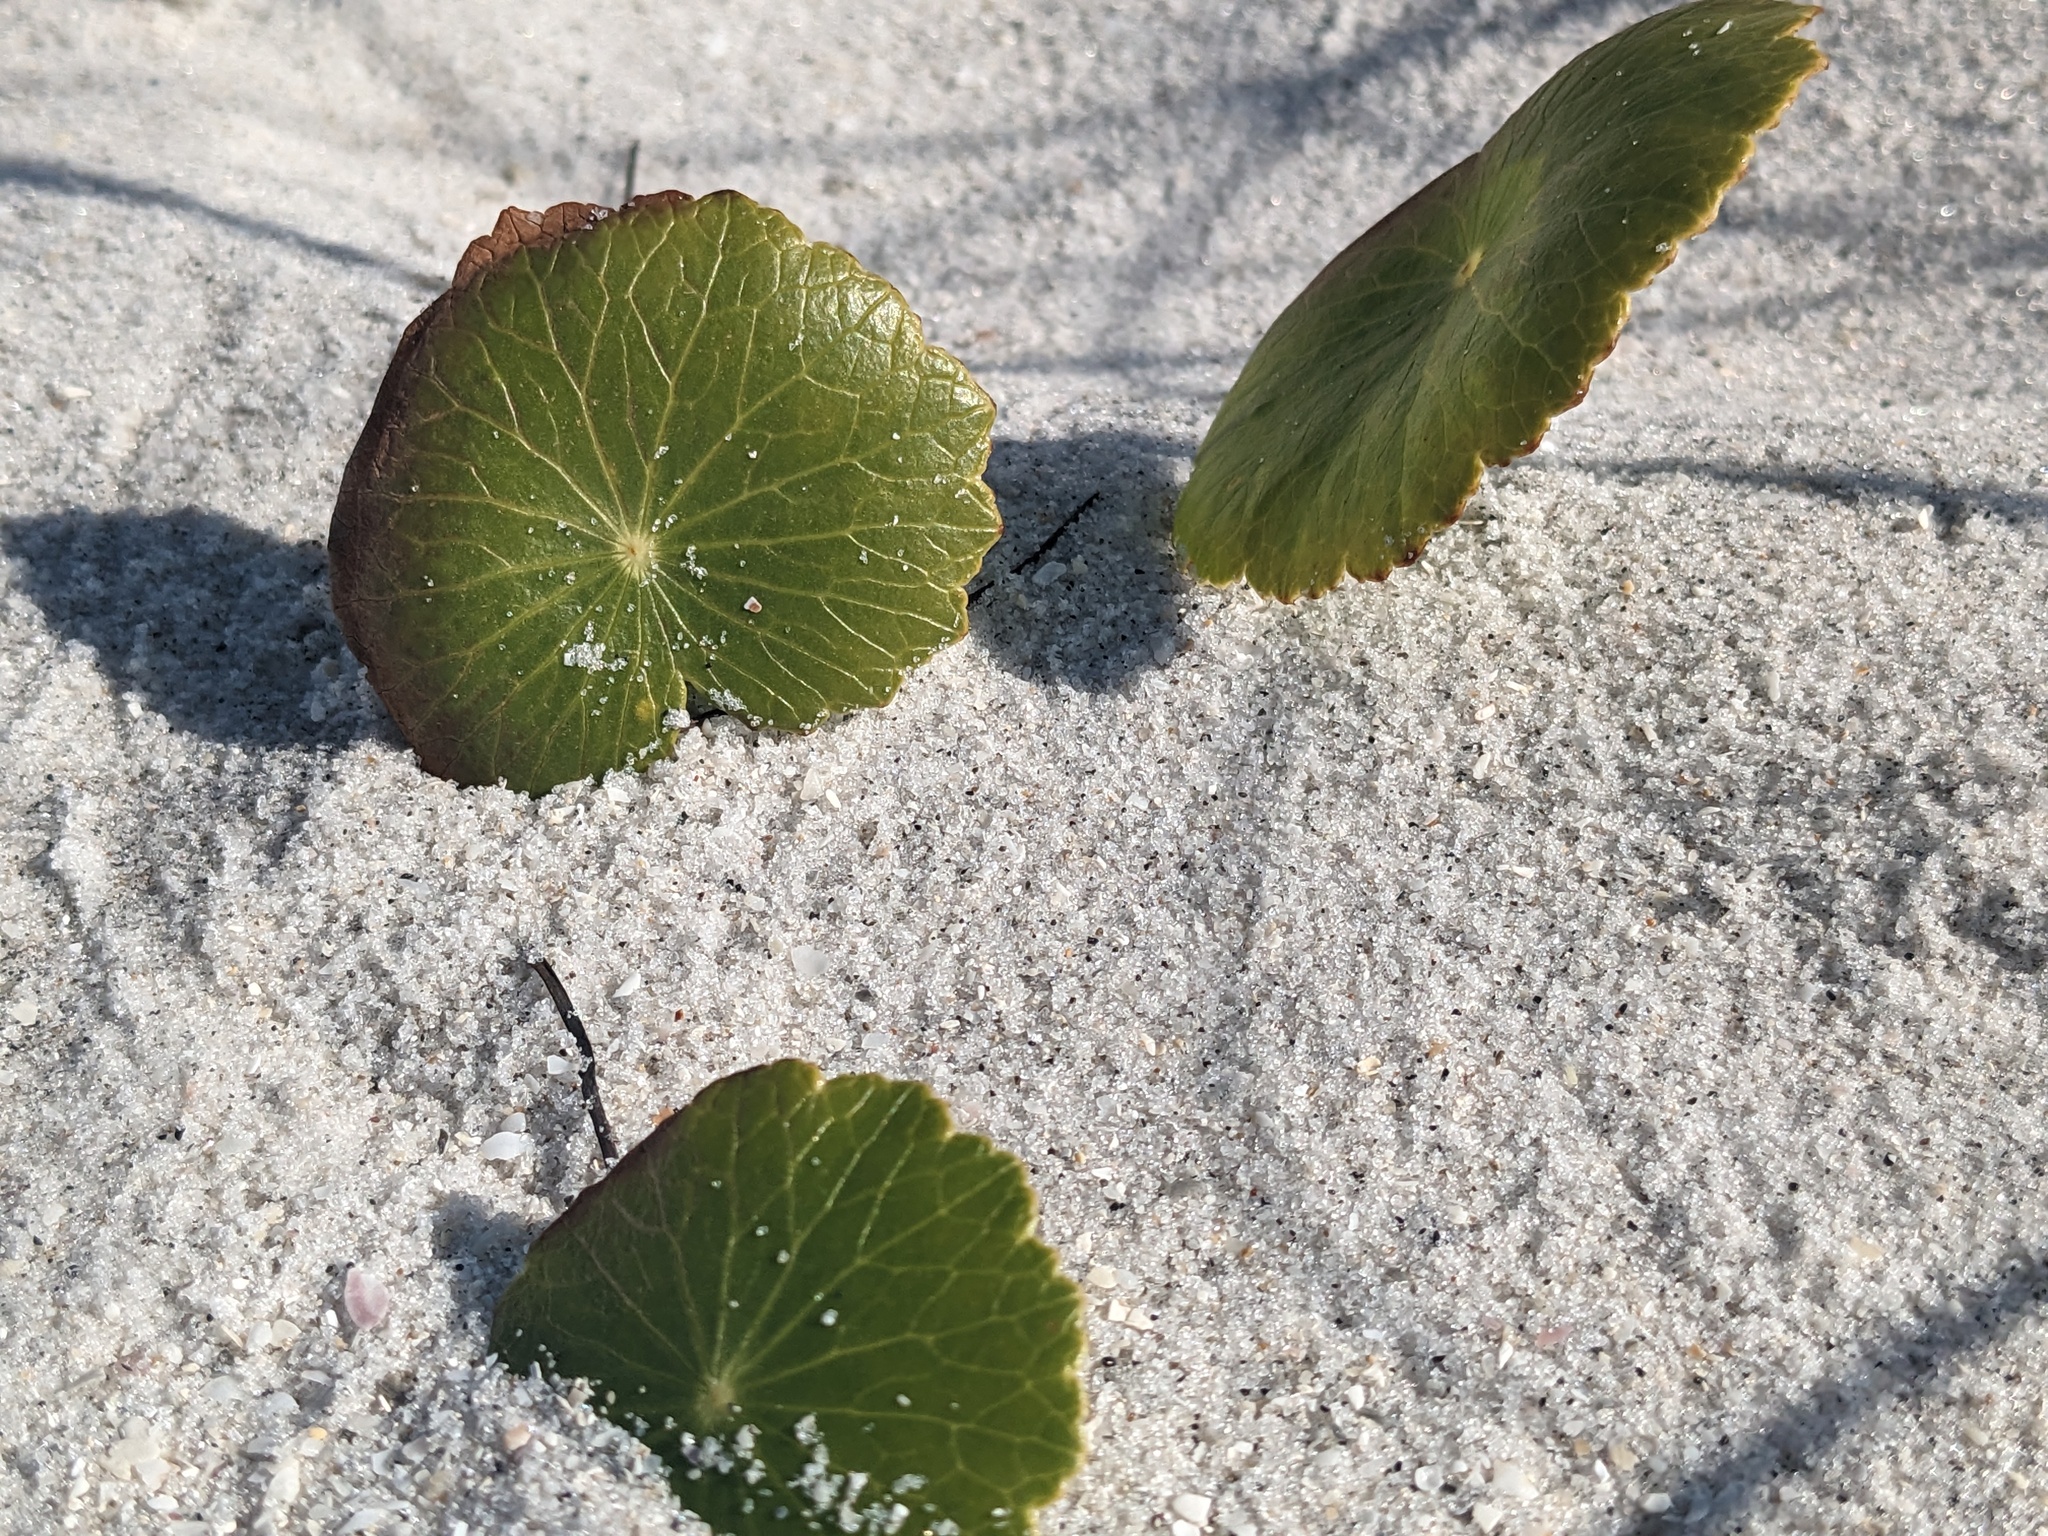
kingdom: Plantae
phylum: Tracheophyta
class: Magnoliopsida
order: Apiales
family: Araliaceae
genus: Hydrocotyle
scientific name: Hydrocotyle bonariensis
